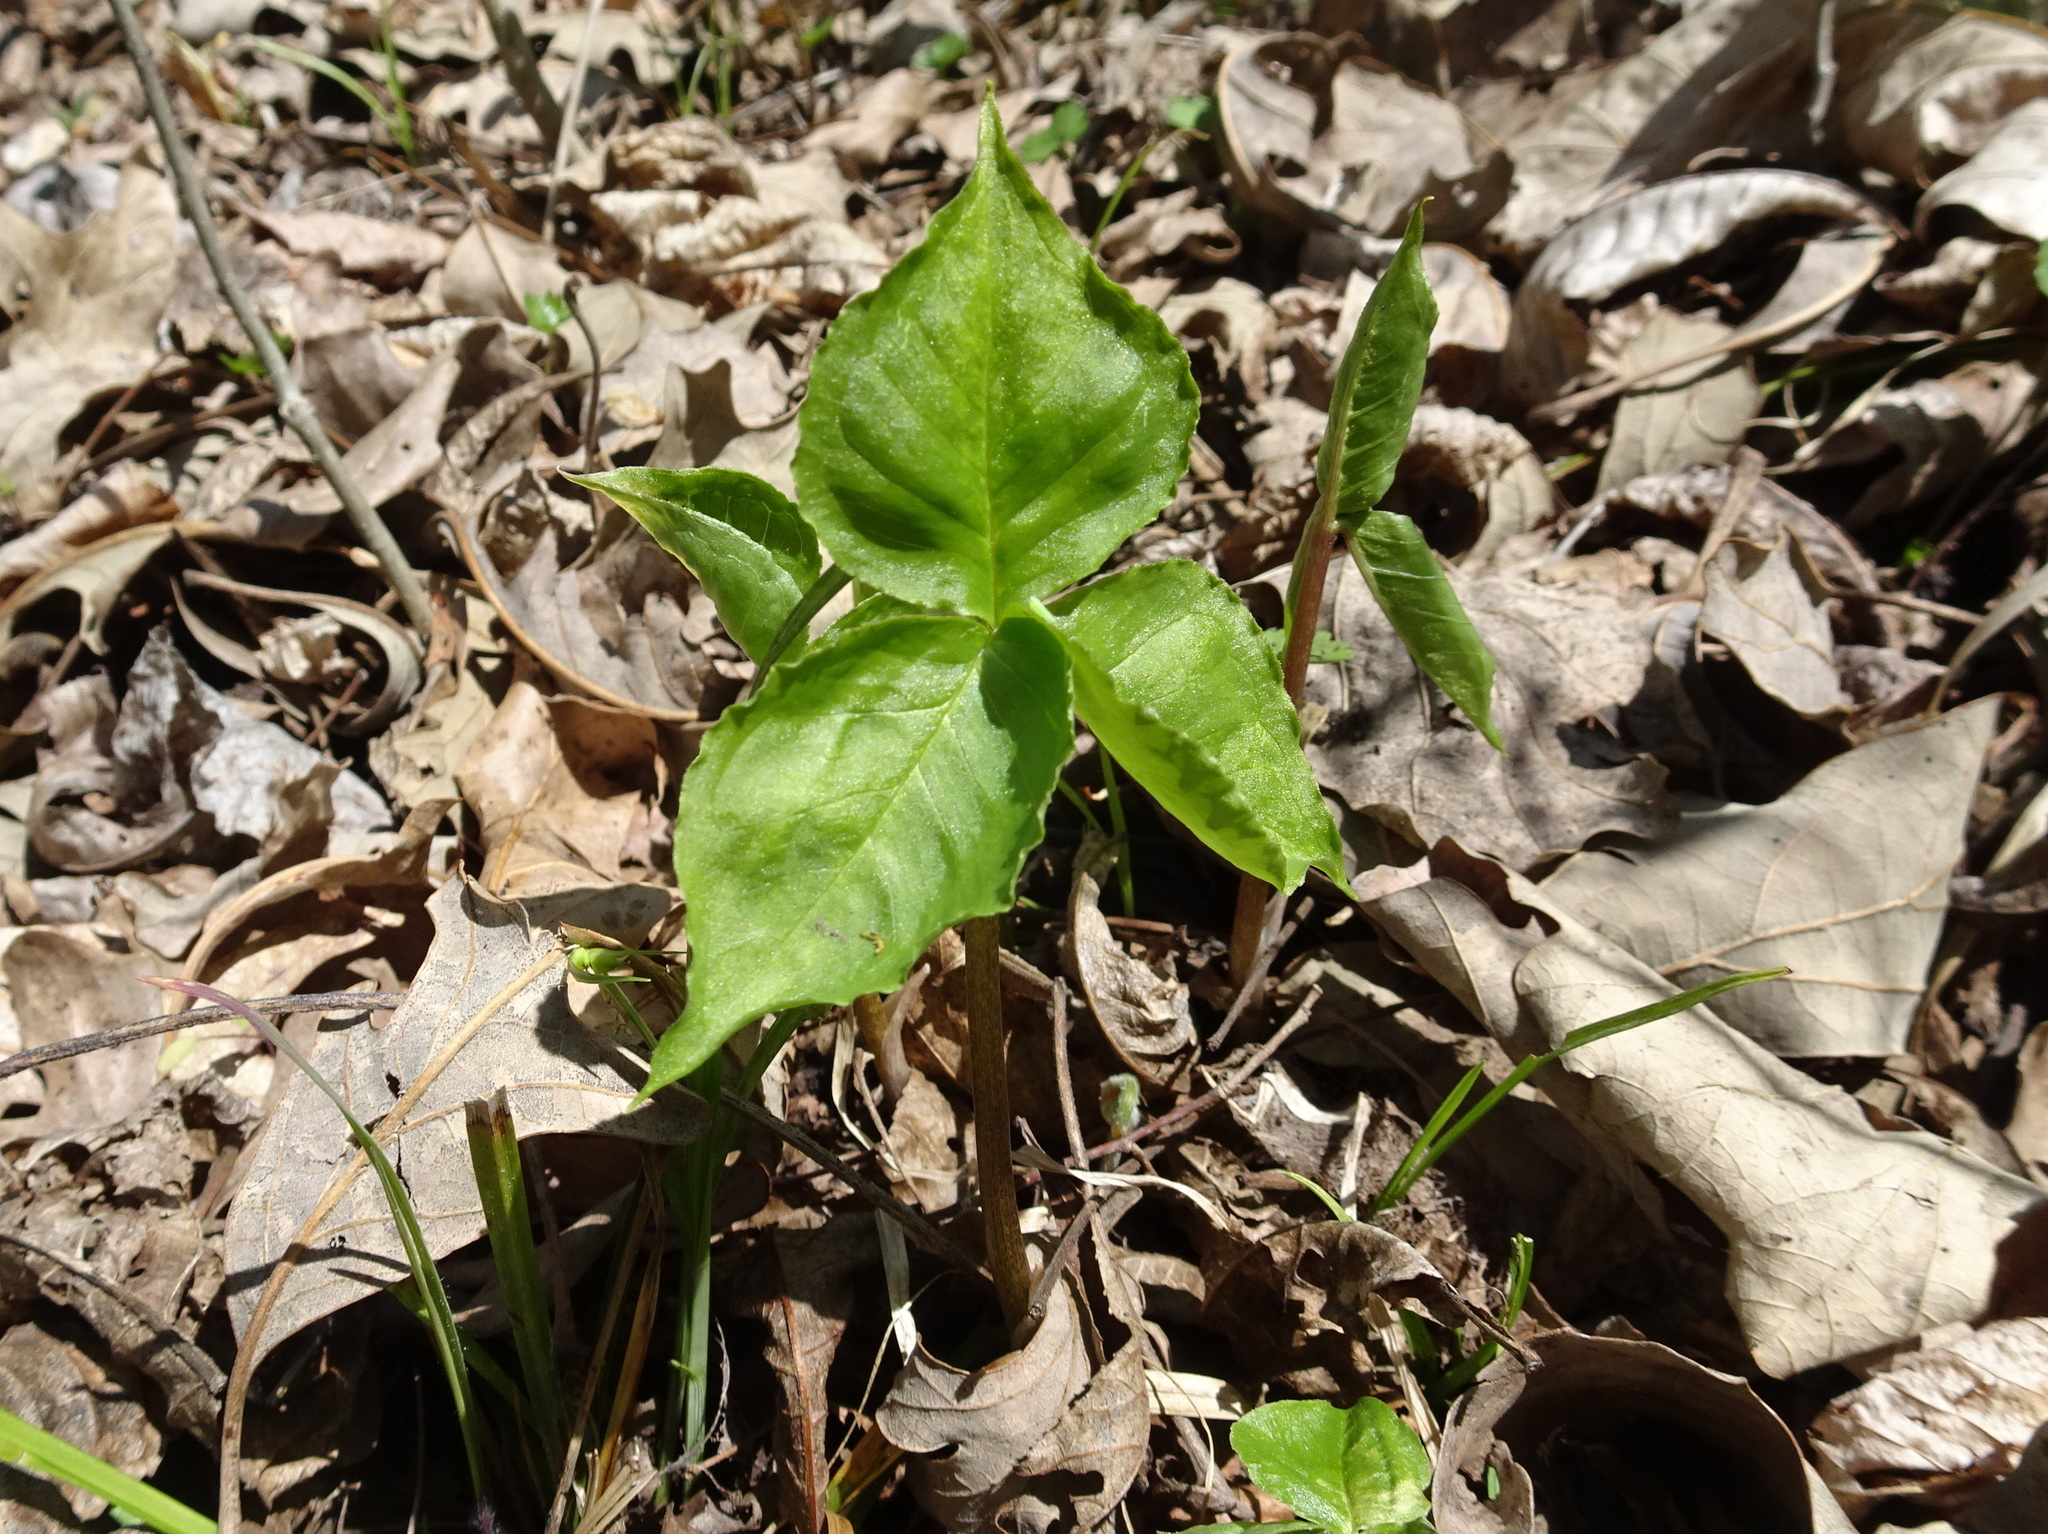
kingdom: Plantae
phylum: Tracheophyta
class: Liliopsida
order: Alismatales
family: Araceae
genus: Arisaema
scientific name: Arisaema triphyllum
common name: Jack-in-the-pulpit
